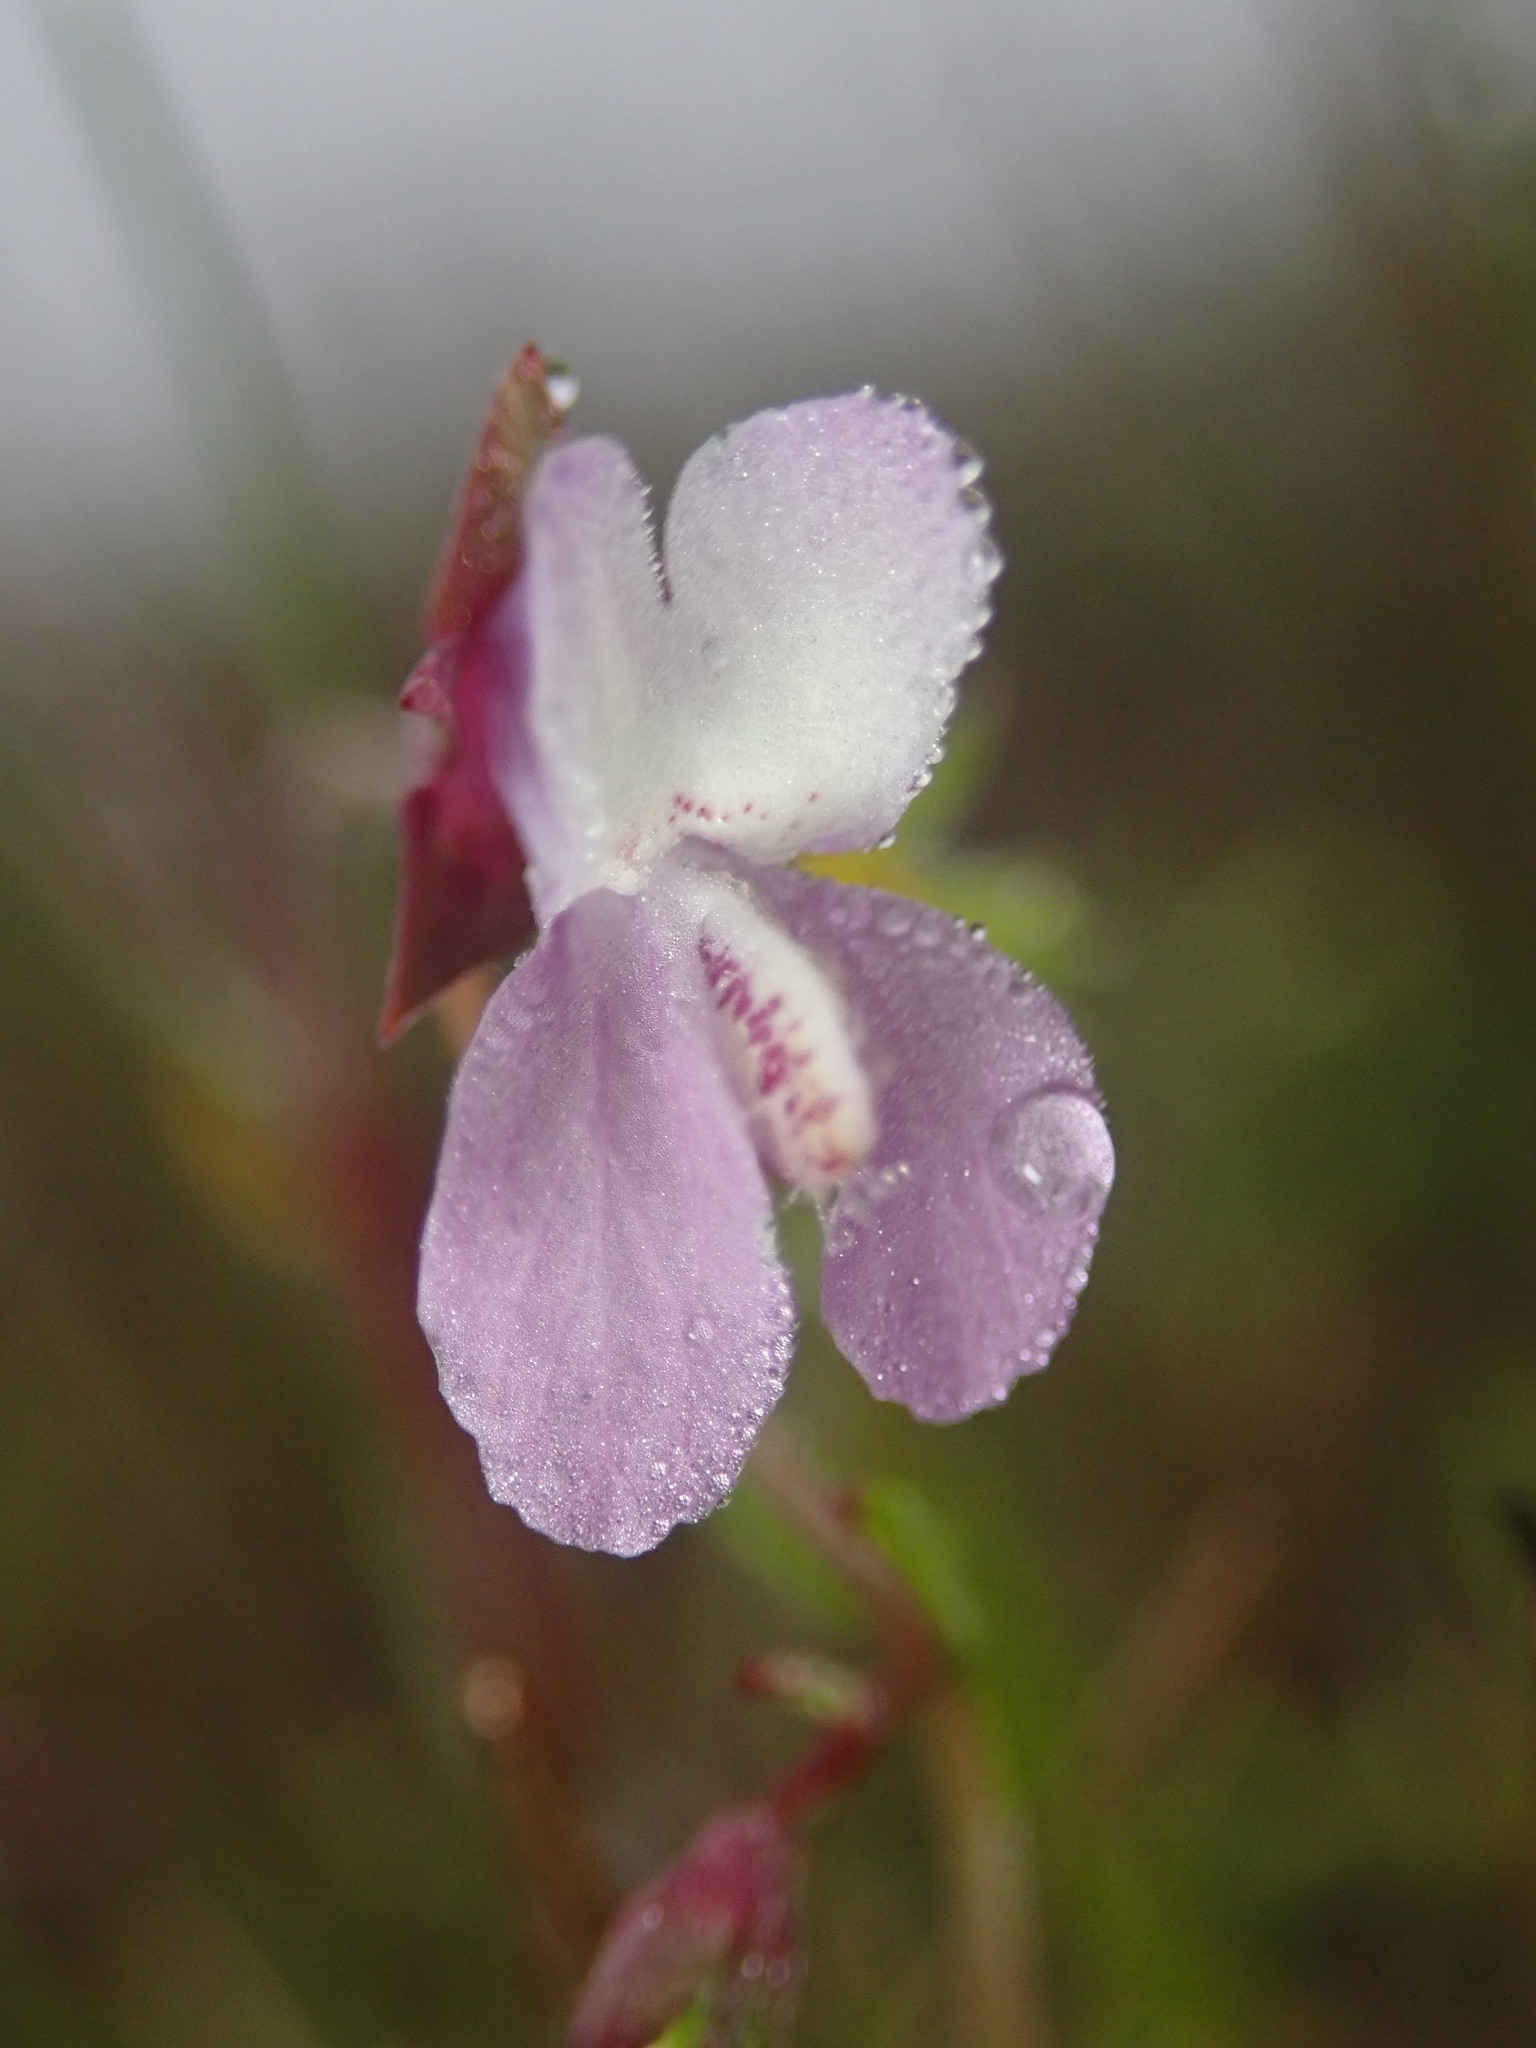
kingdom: Plantae
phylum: Tracheophyta
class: Magnoliopsida
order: Lamiales
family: Plantaginaceae
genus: Collinsia
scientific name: Collinsia sparsiflora
